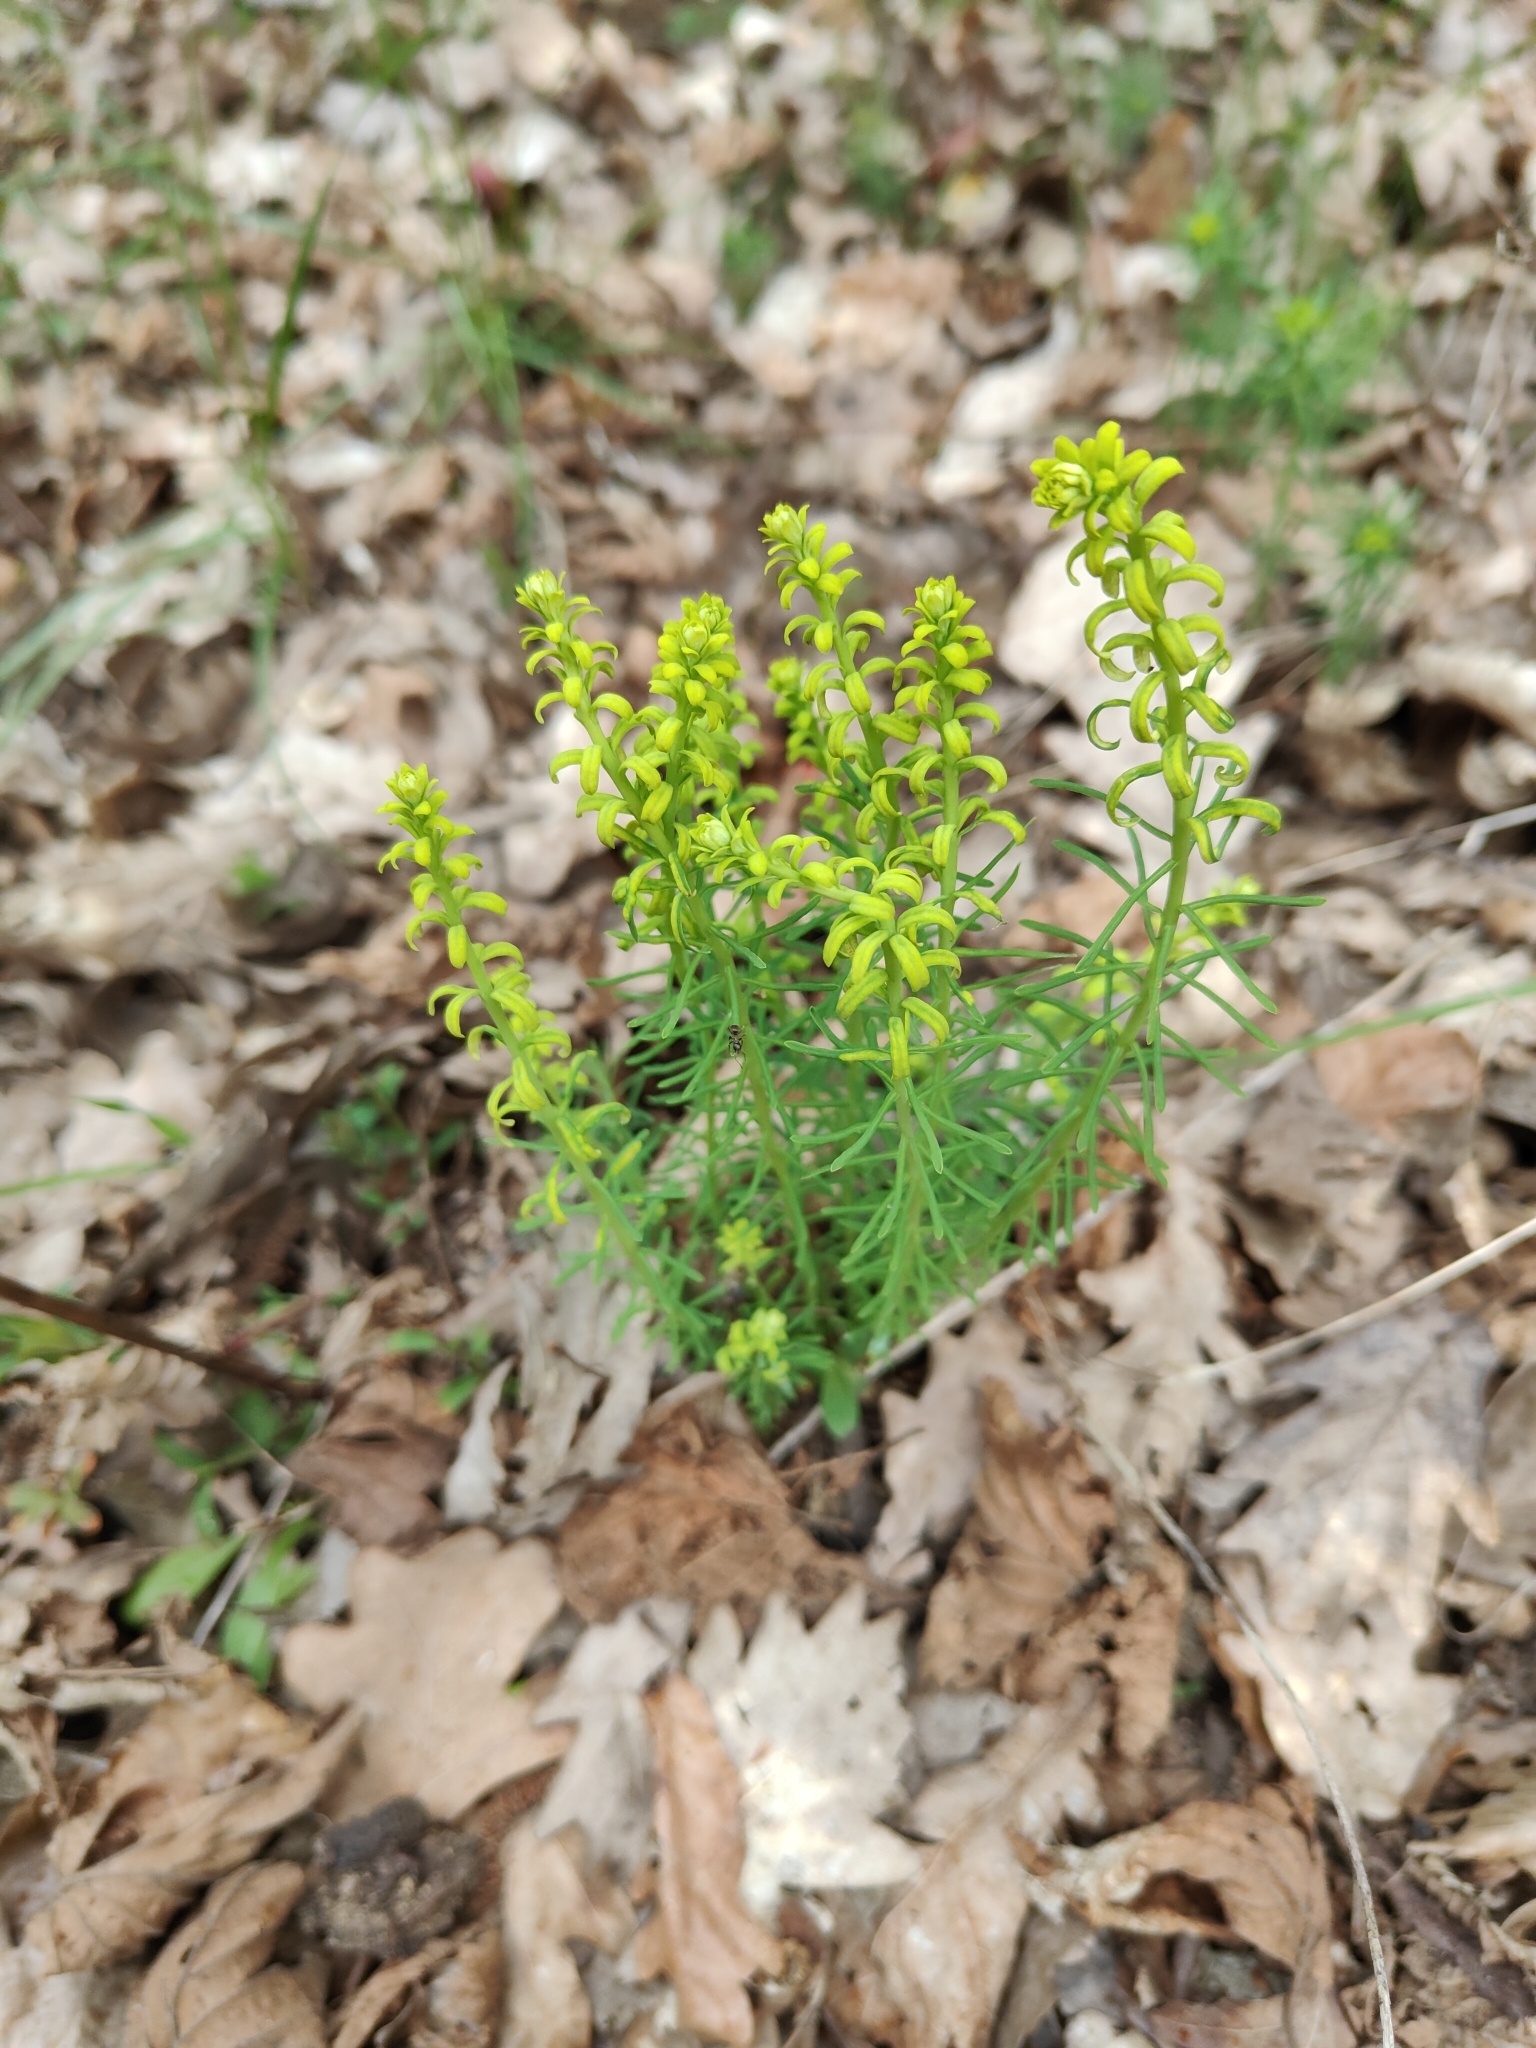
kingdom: Plantae
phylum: Tracheophyta
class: Magnoliopsida
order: Malpighiales
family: Euphorbiaceae
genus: Euphorbia
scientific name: Euphorbia cyparissias
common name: Cypress spurge
